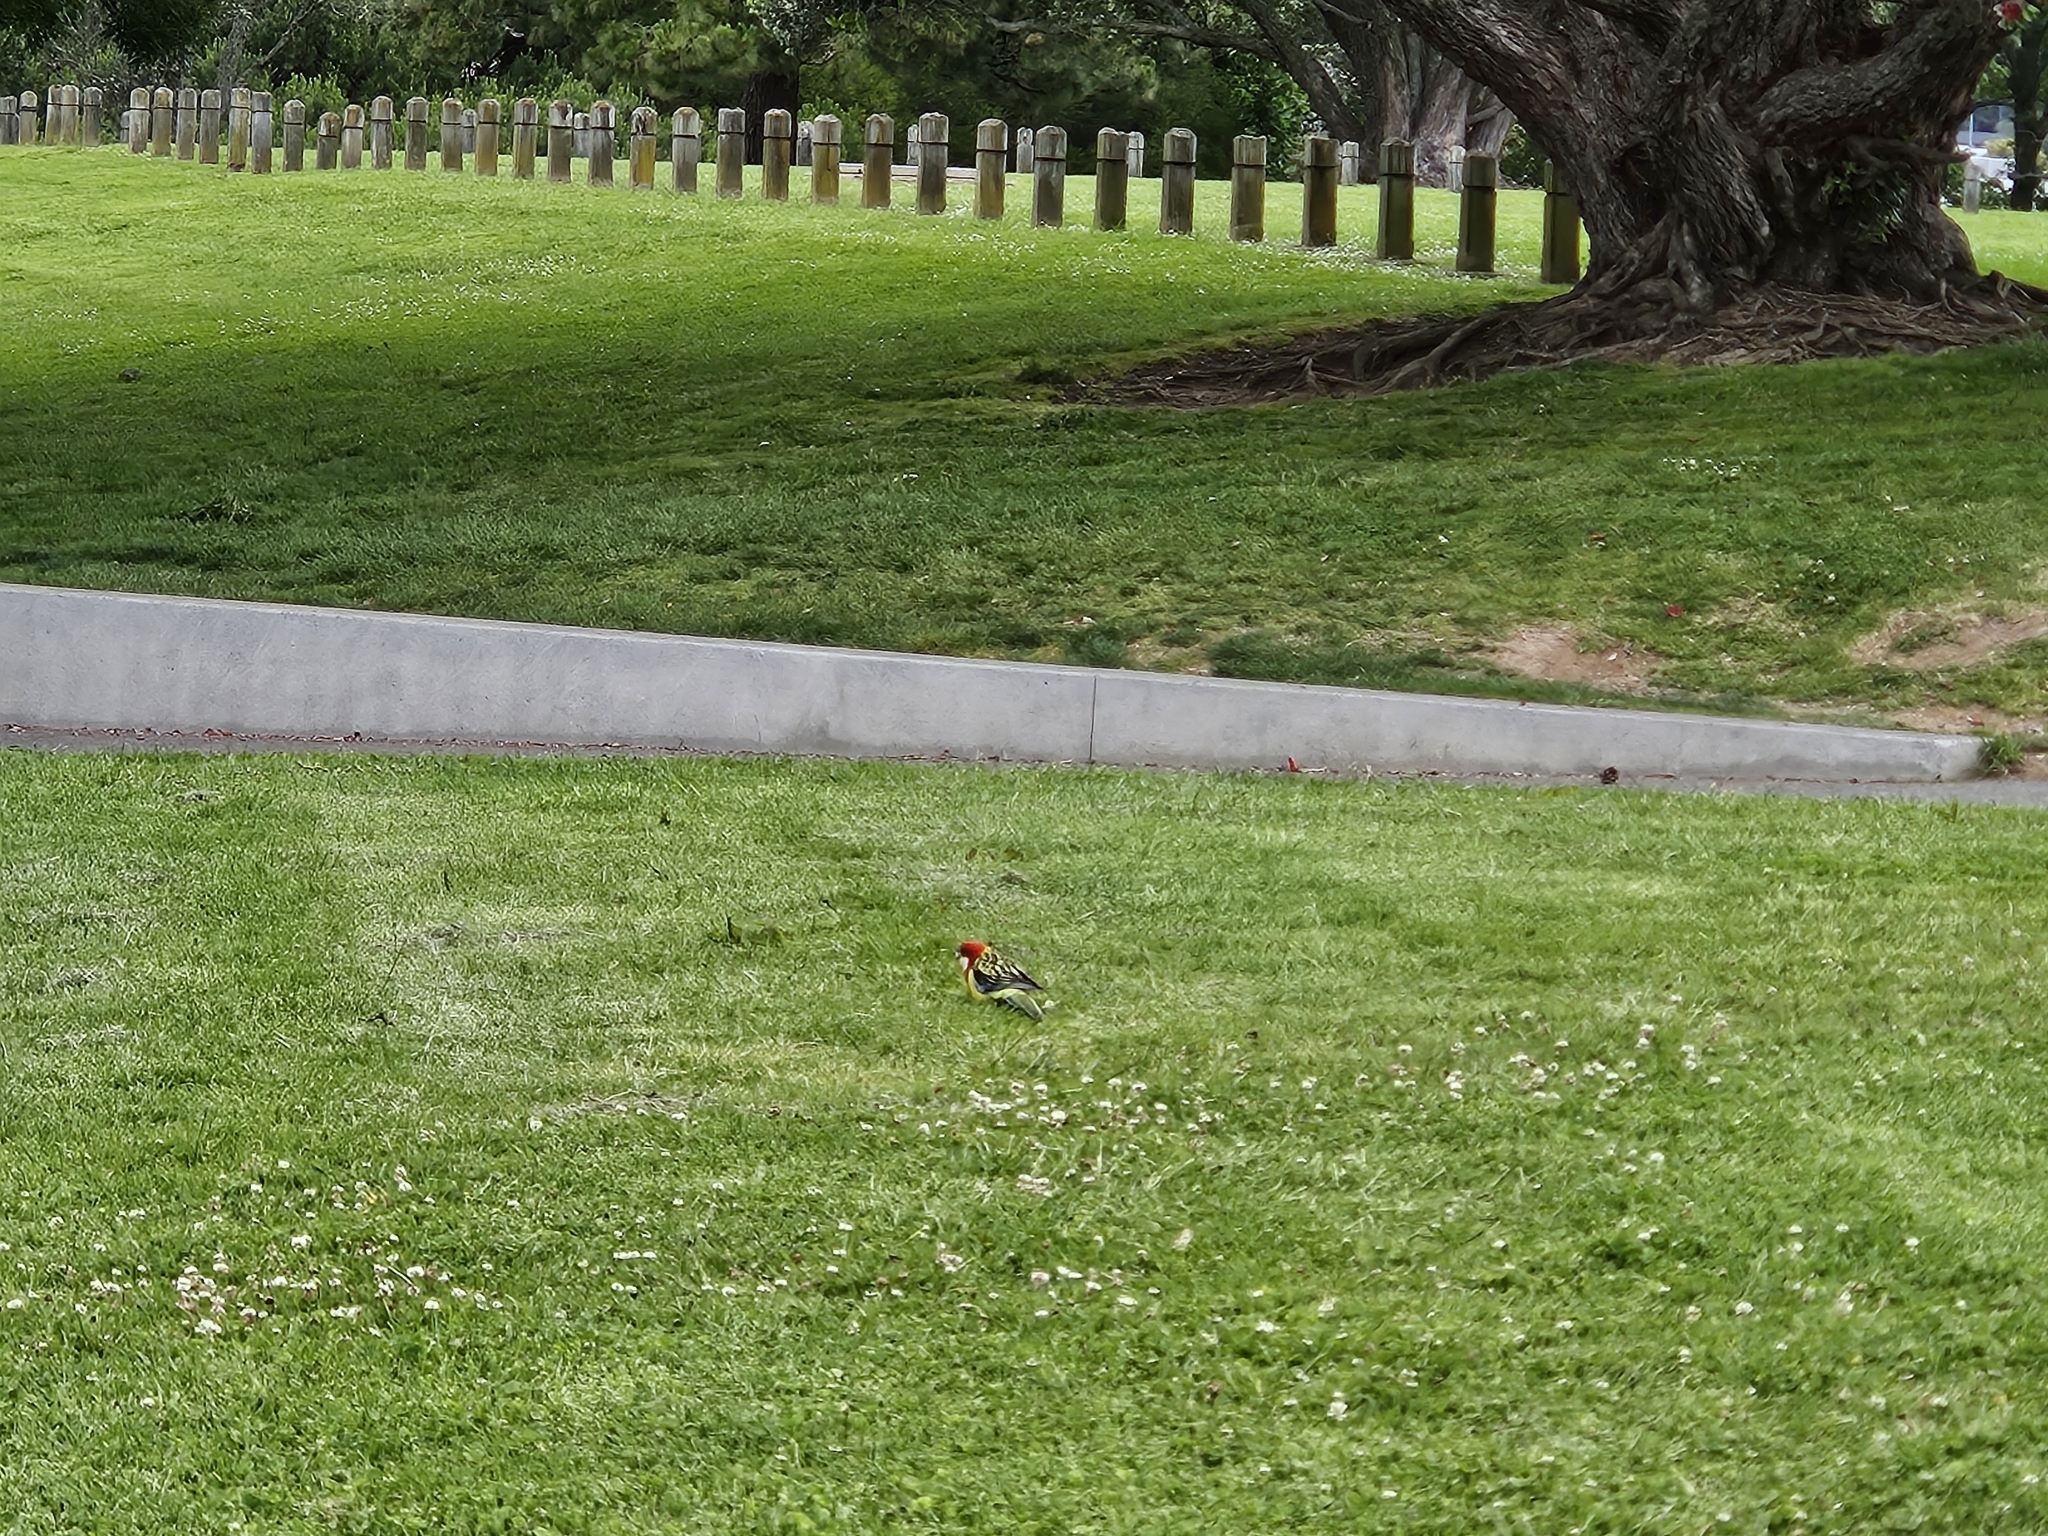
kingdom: Animalia
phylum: Chordata
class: Aves
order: Psittaciformes
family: Psittacidae
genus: Platycercus
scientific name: Platycercus eximius
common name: Eastern rosella
